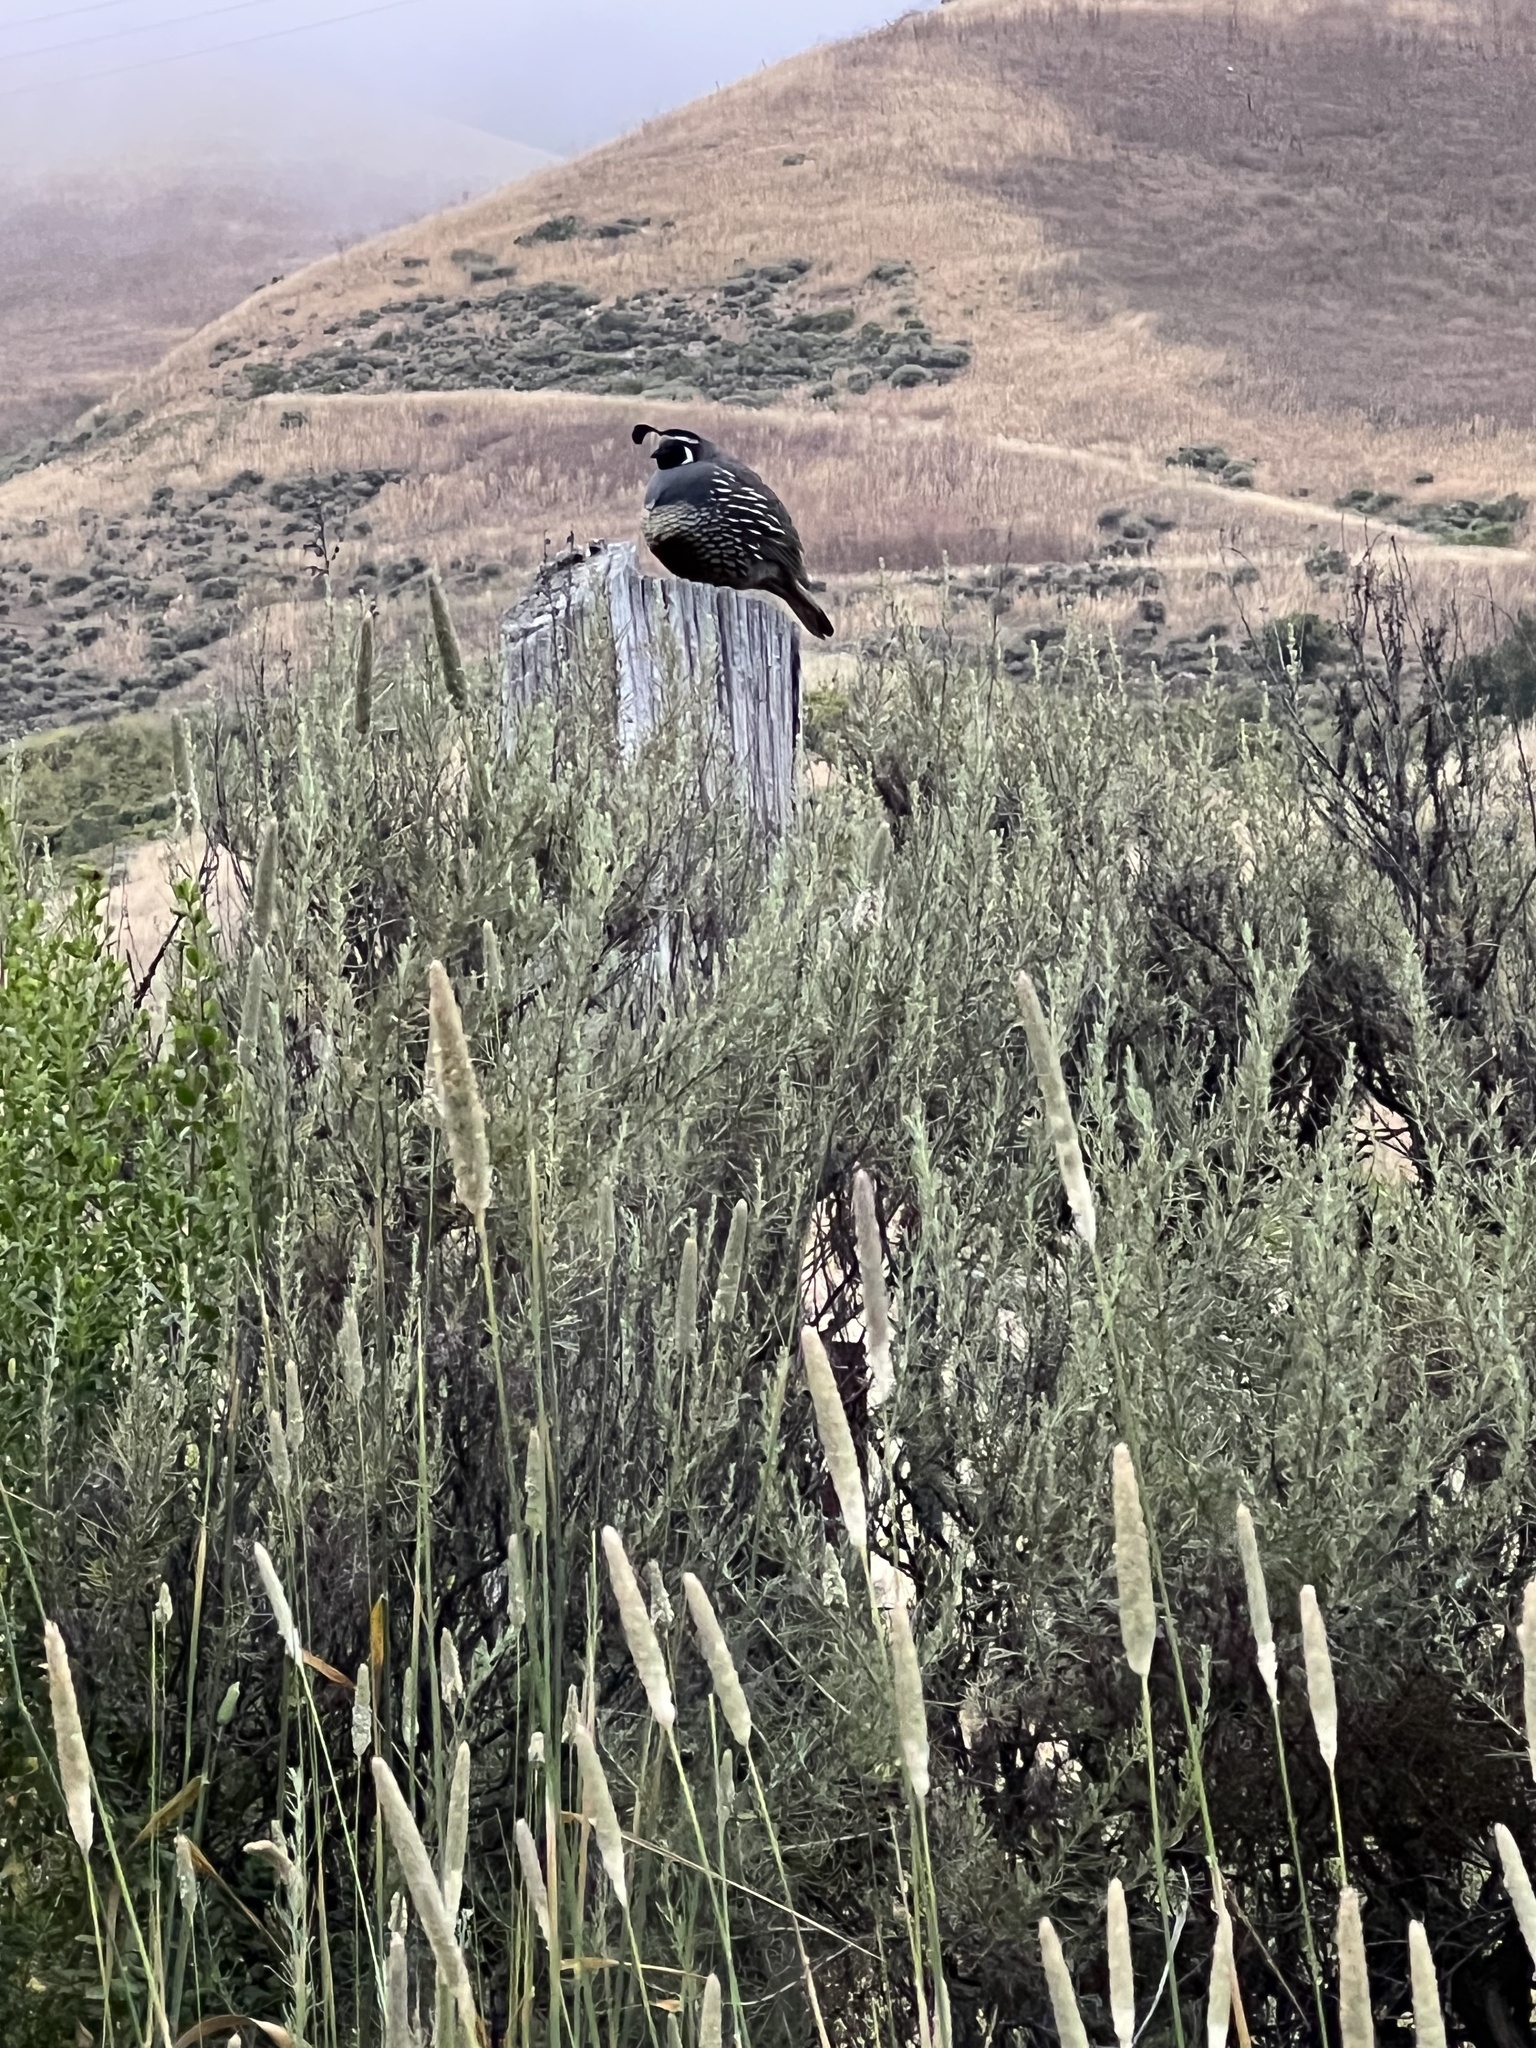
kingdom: Animalia
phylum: Chordata
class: Aves
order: Galliformes
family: Odontophoridae
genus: Callipepla
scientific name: Callipepla californica
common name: California quail
